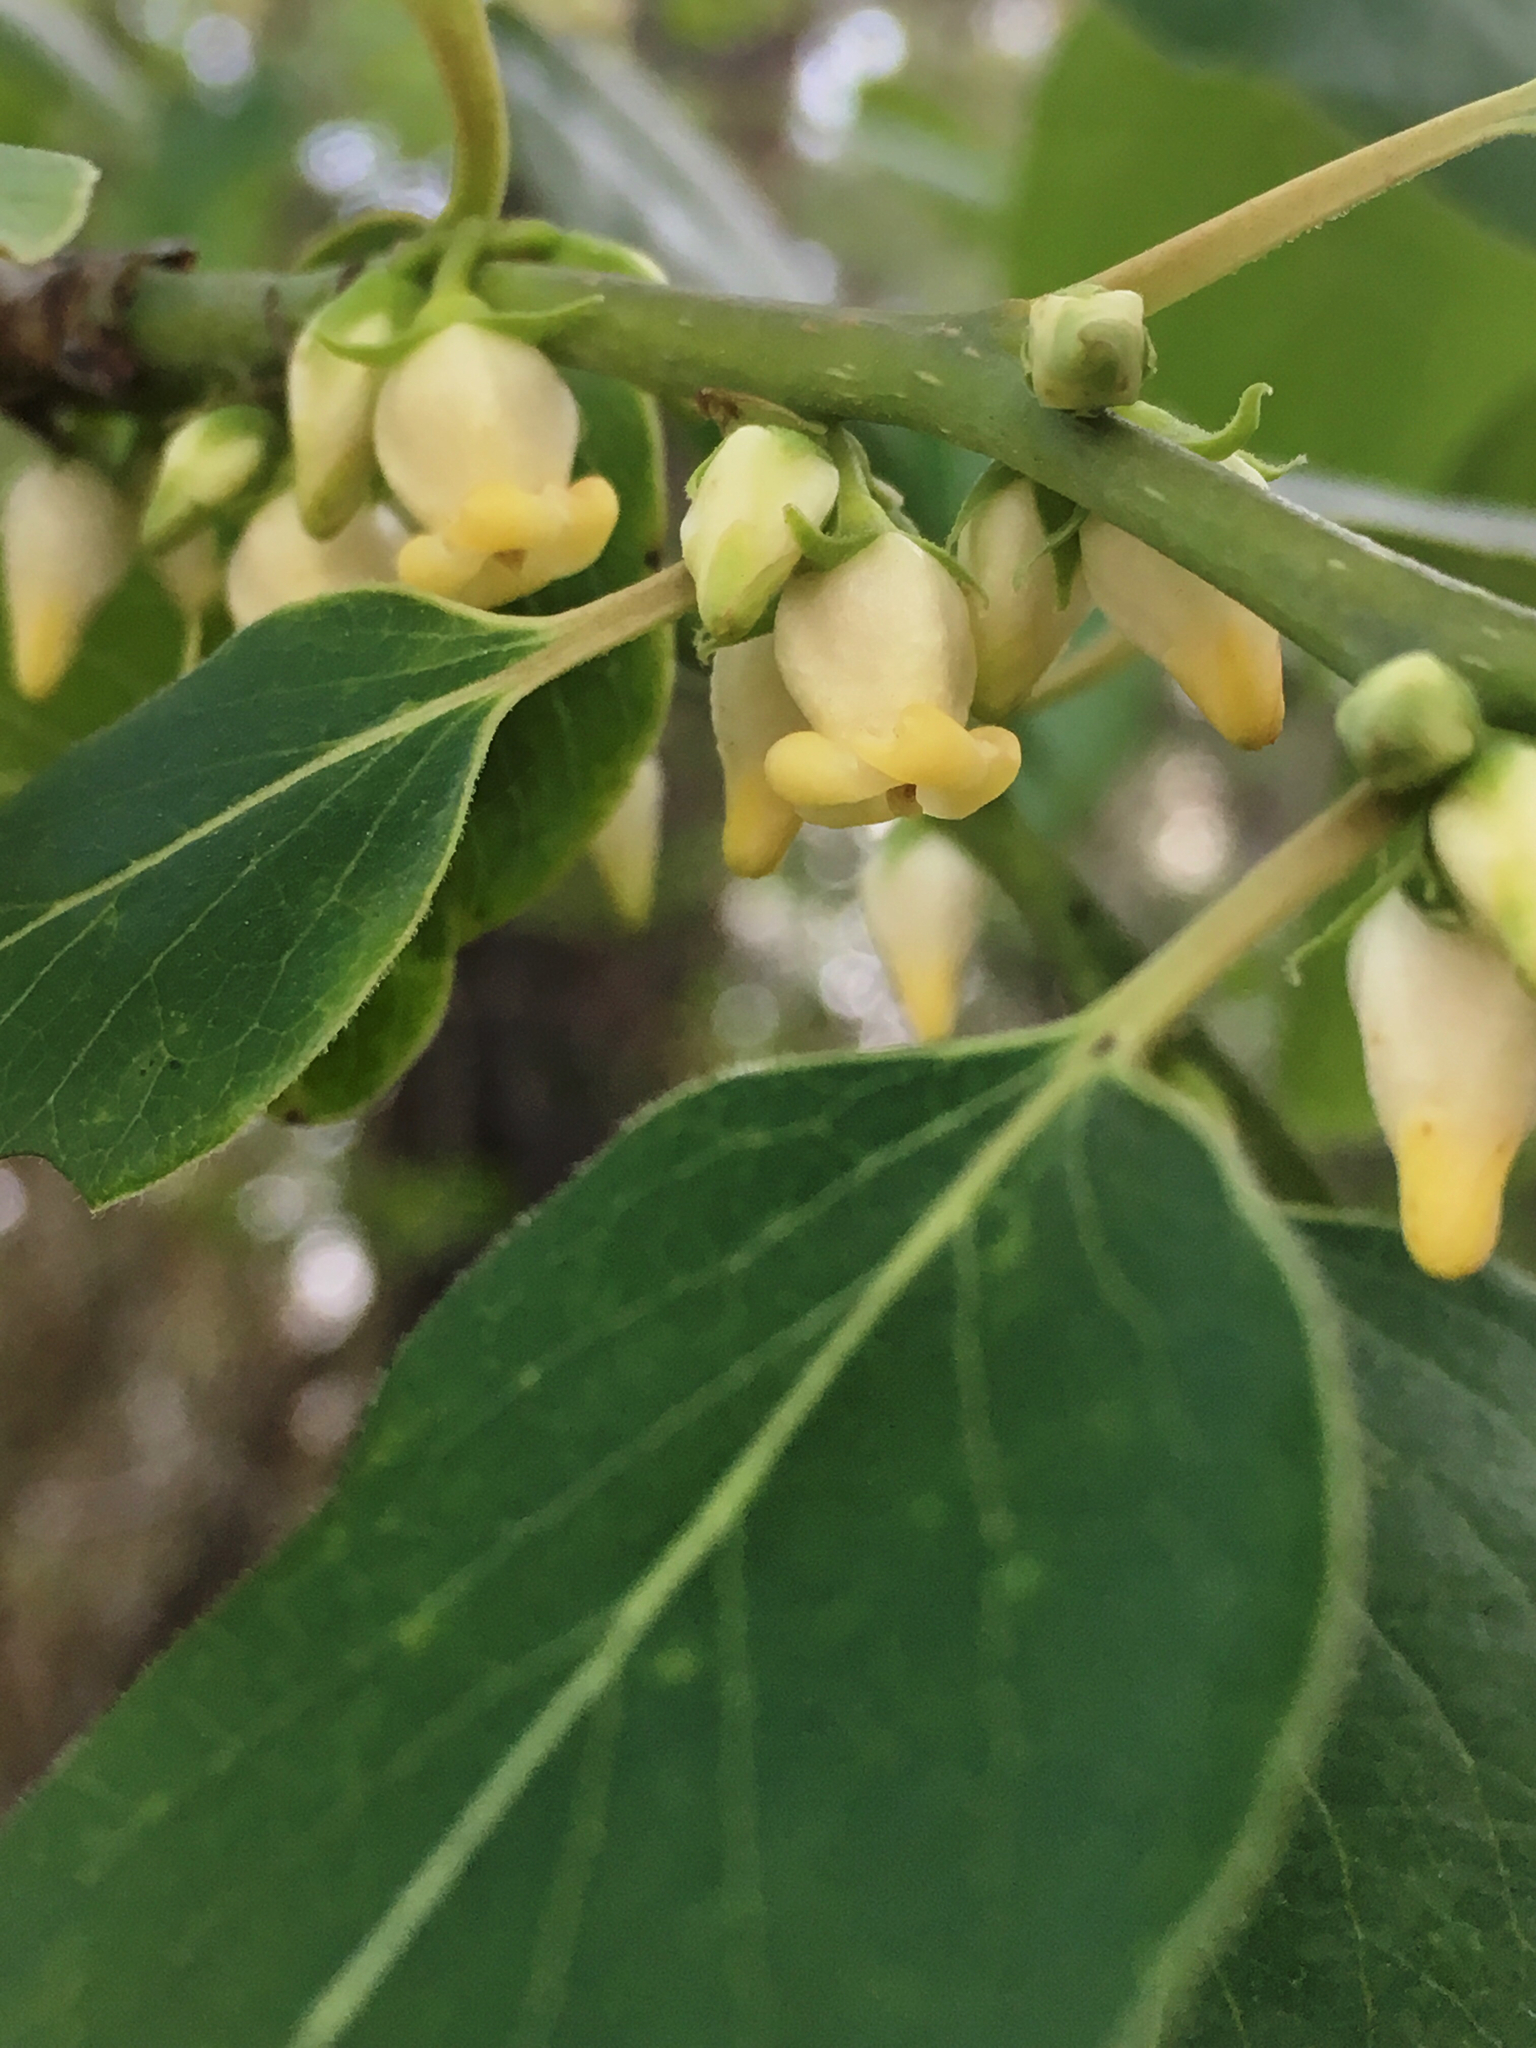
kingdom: Plantae
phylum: Tracheophyta
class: Magnoliopsida
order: Ericales
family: Ebenaceae
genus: Diospyros
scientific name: Diospyros virginiana
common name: Persimmon
